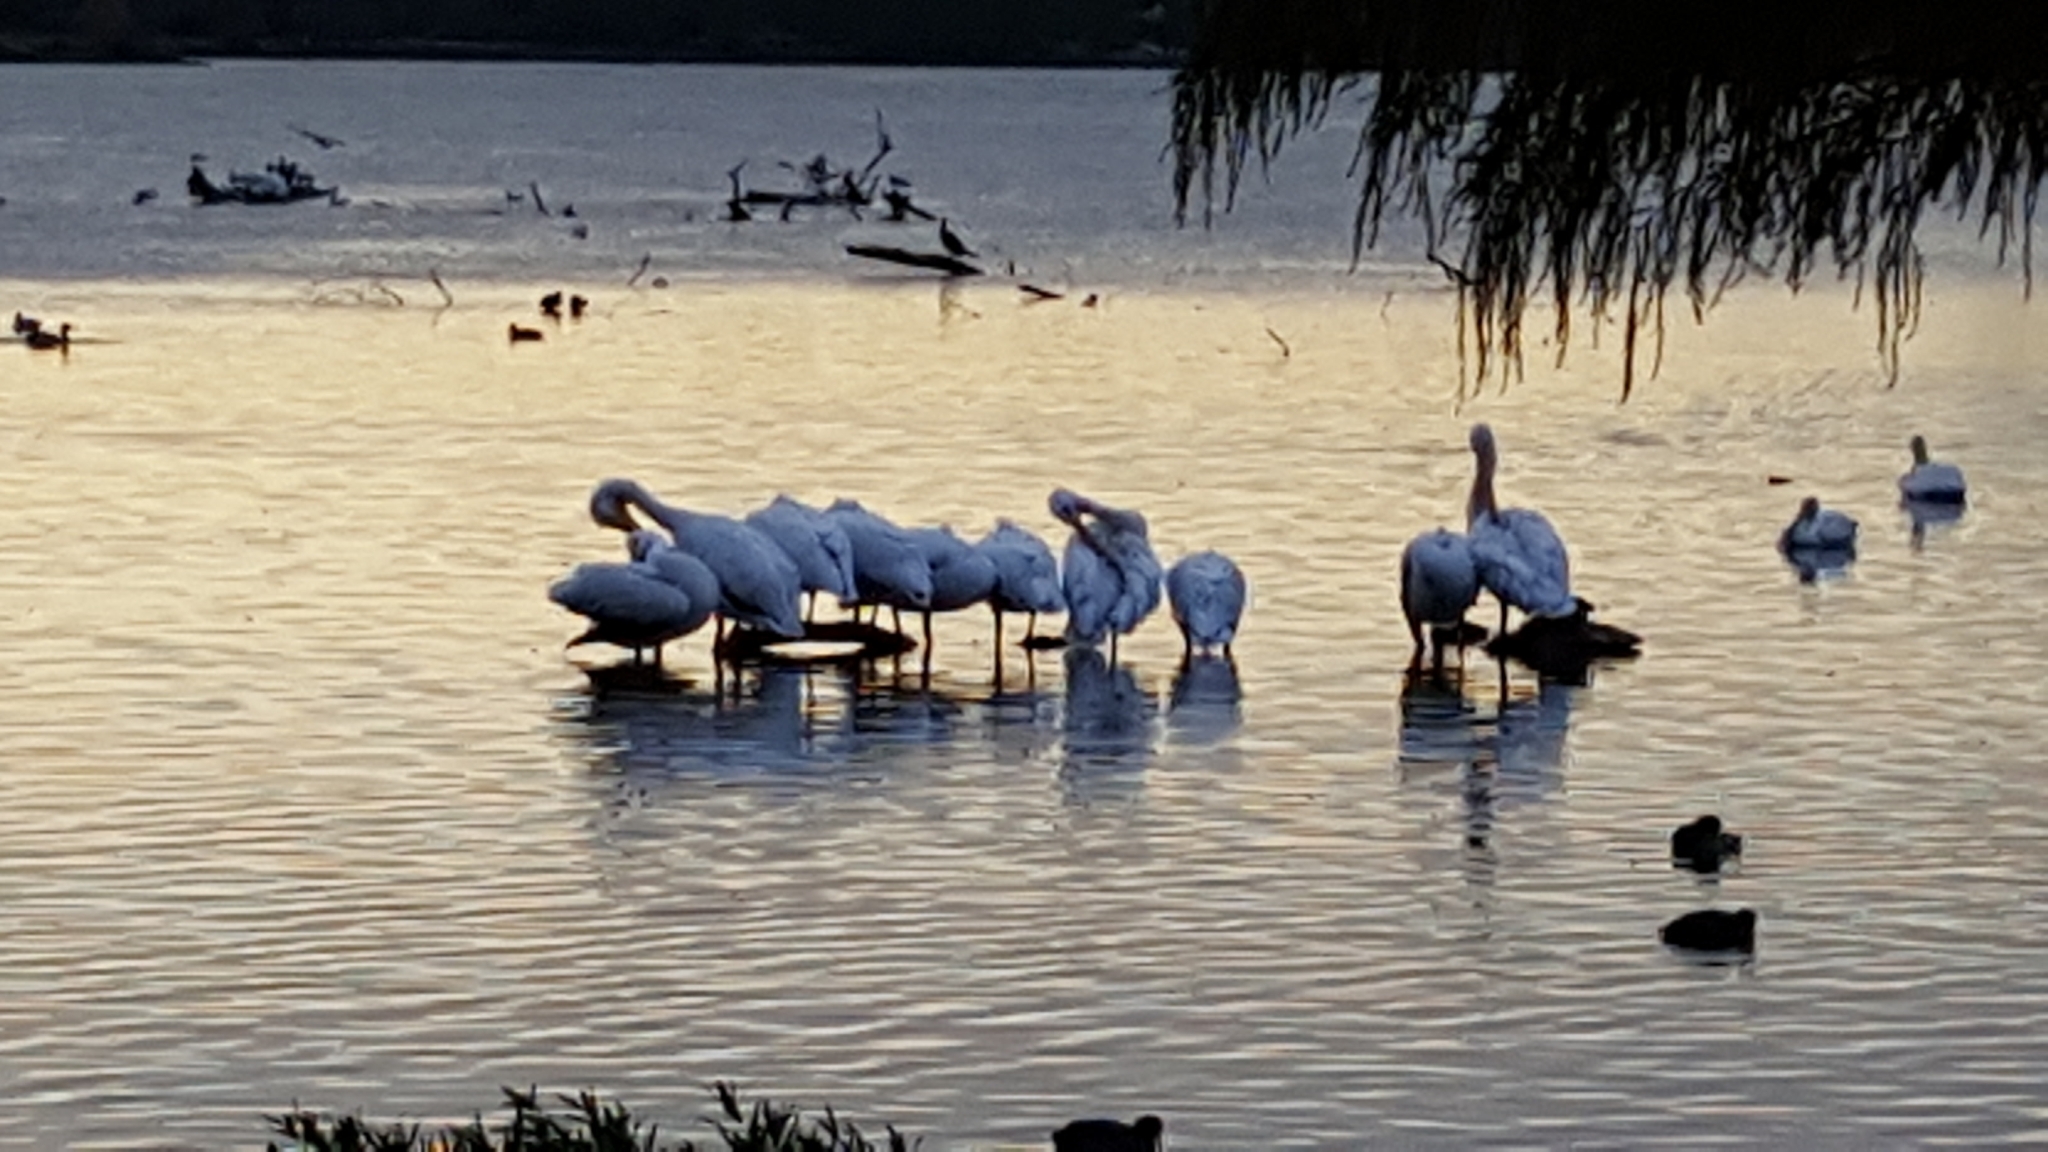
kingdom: Animalia
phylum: Chordata
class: Aves
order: Pelecaniformes
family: Pelecanidae
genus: Pelecanus
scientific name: Pelecanus erythrorhynchos
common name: American white pelican
